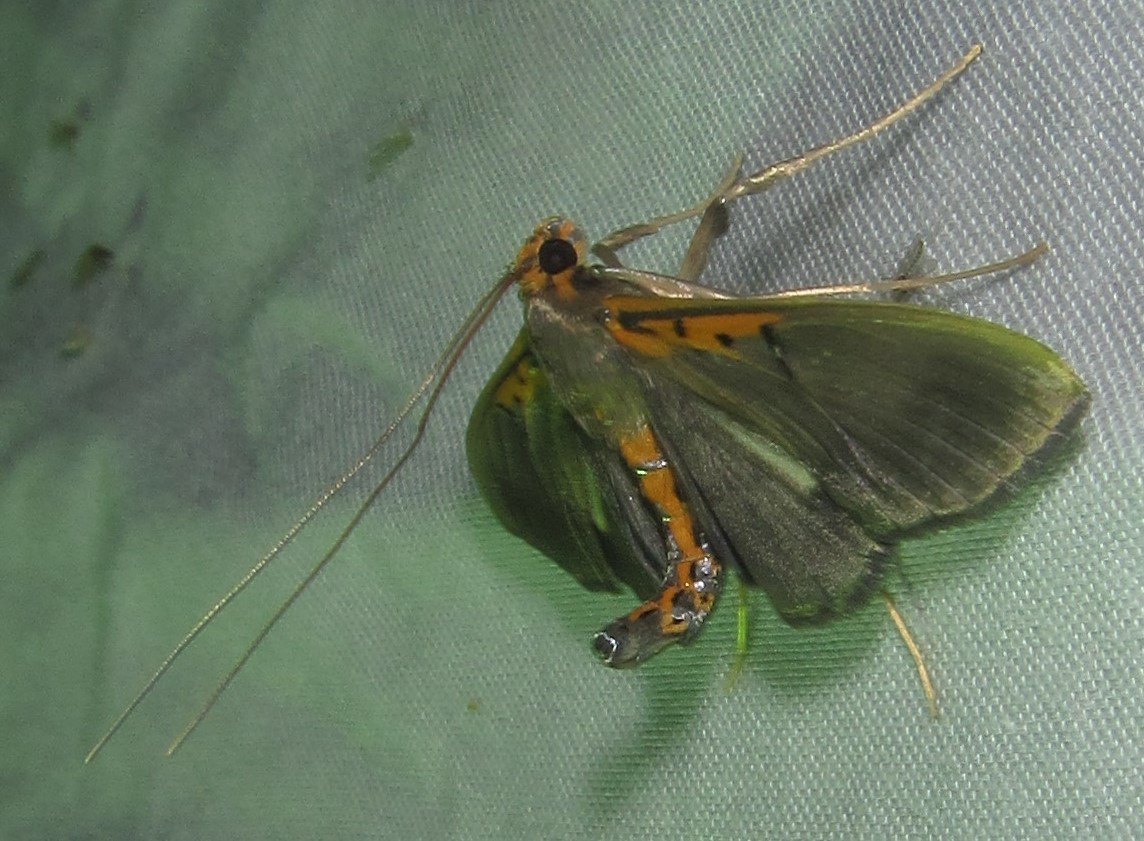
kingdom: Animalia
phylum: Arthropoda
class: Insecta
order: Lepidoptera
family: Crambidae
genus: Filodes
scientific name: Filodes costivitralis
